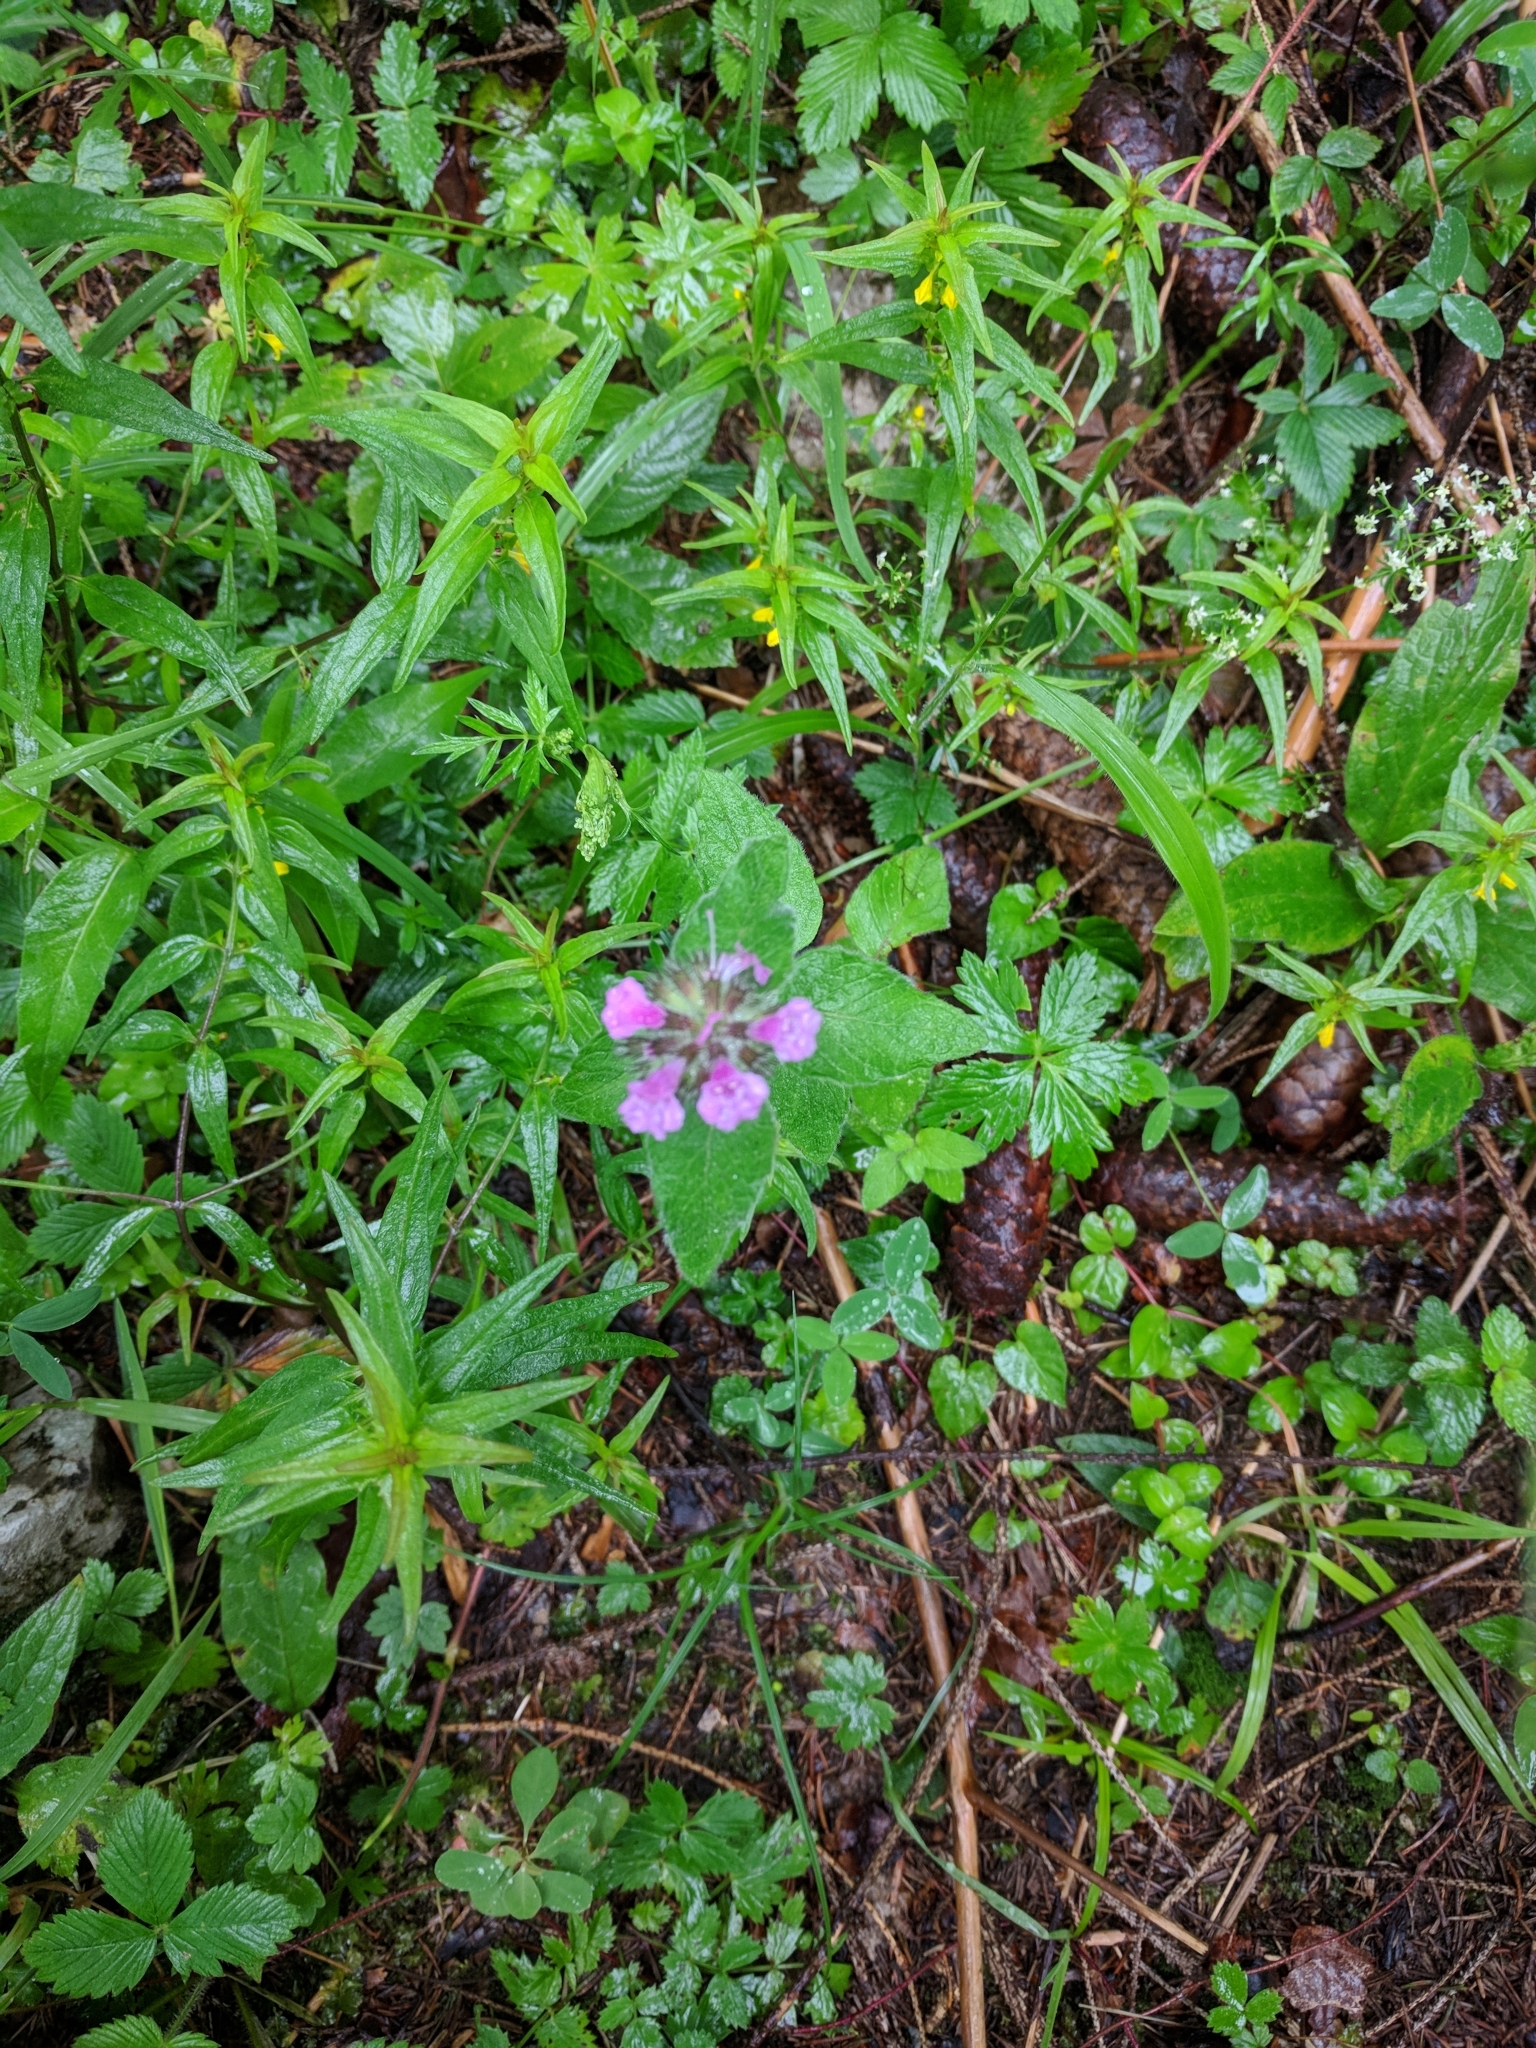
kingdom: Plantae
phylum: Tracheophyta
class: Magnoliopsida
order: Lamiales
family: Lamiaceae
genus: Clinopodium
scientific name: Clinopodium vulgare
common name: Wild basil
